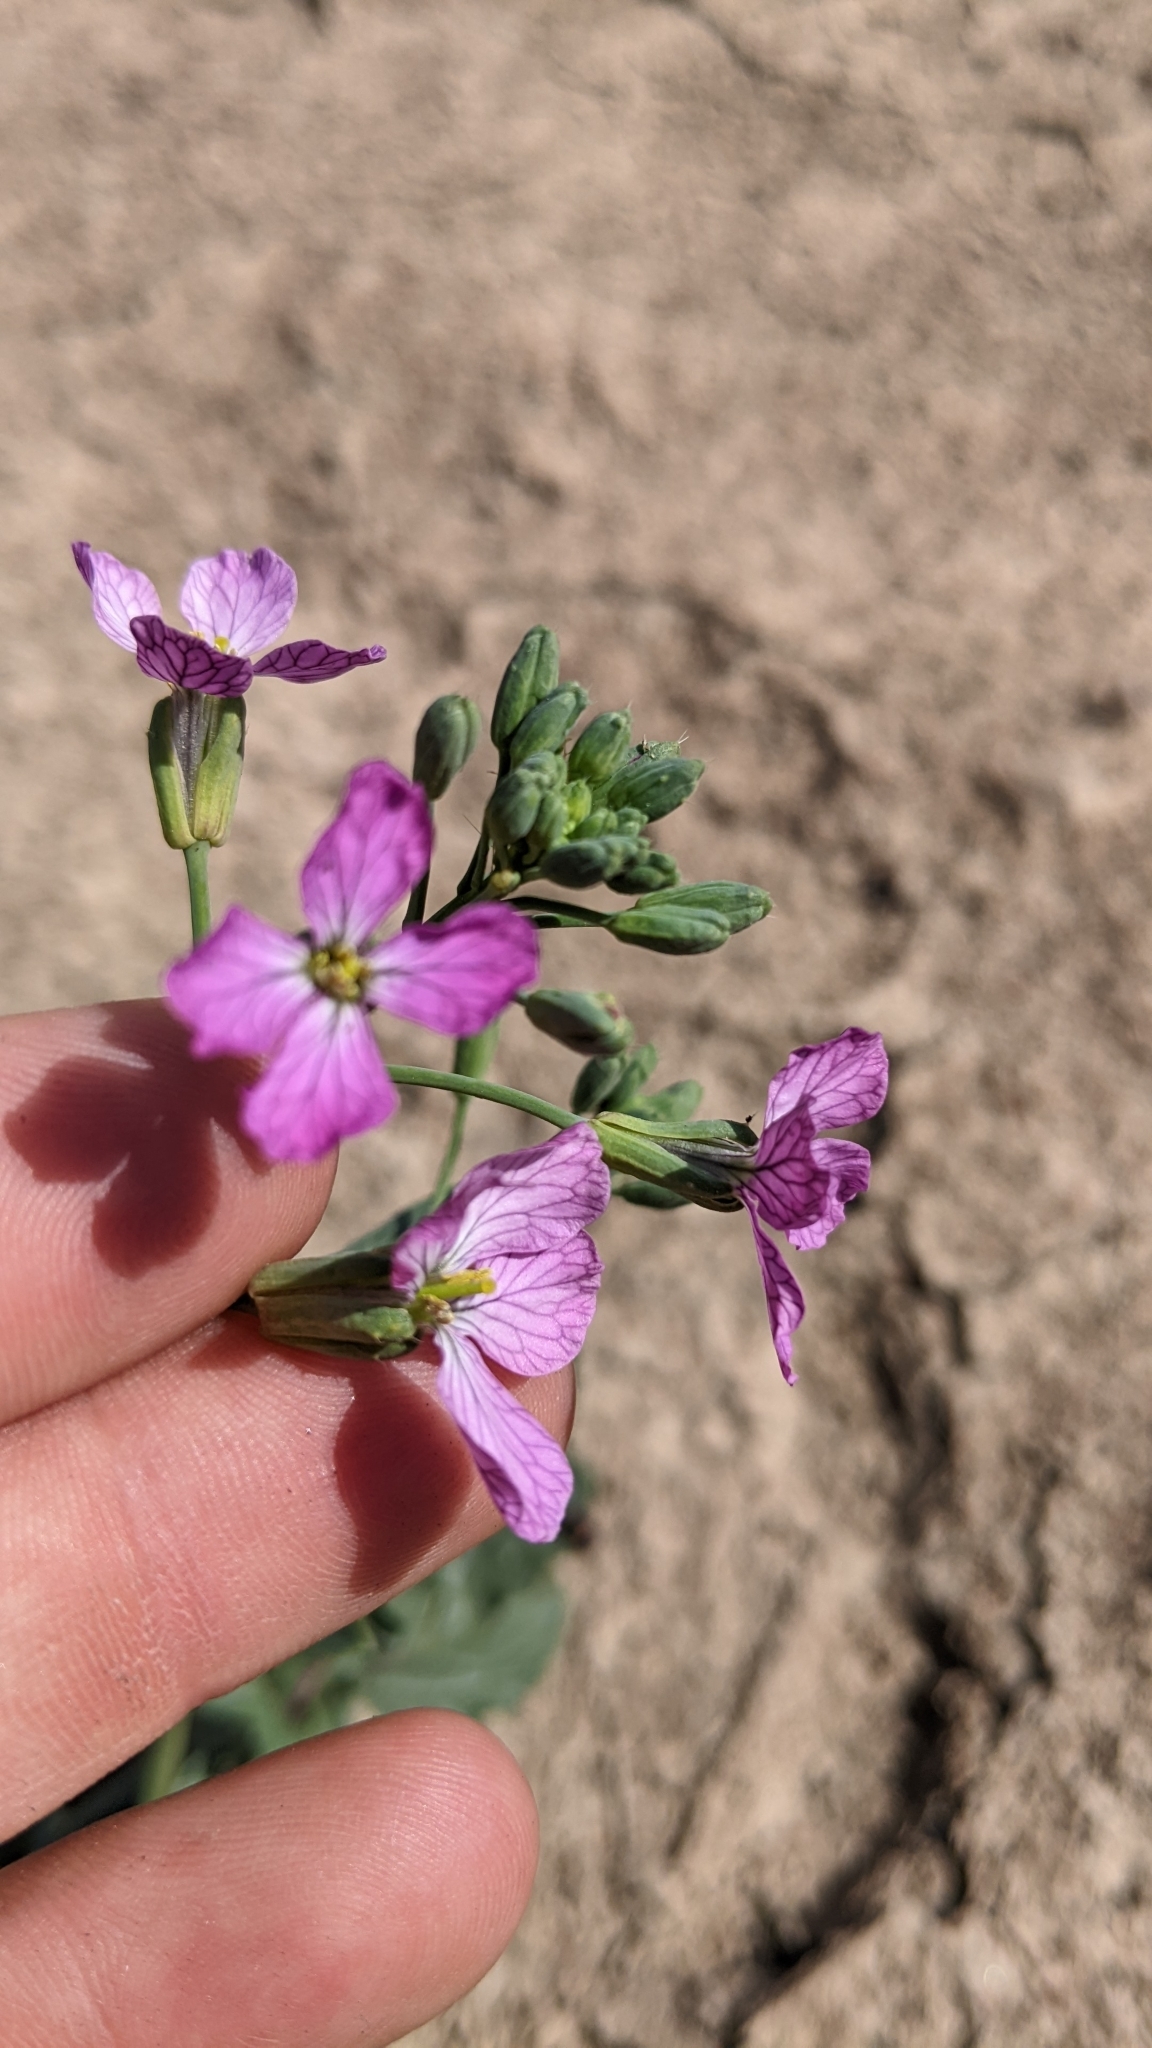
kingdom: Plantae
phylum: Tracheophyta
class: Magnoliopsida
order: Brassicales
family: Brassicaceae
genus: Raphanus
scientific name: Raphanus sativus
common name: Cultivated radish
